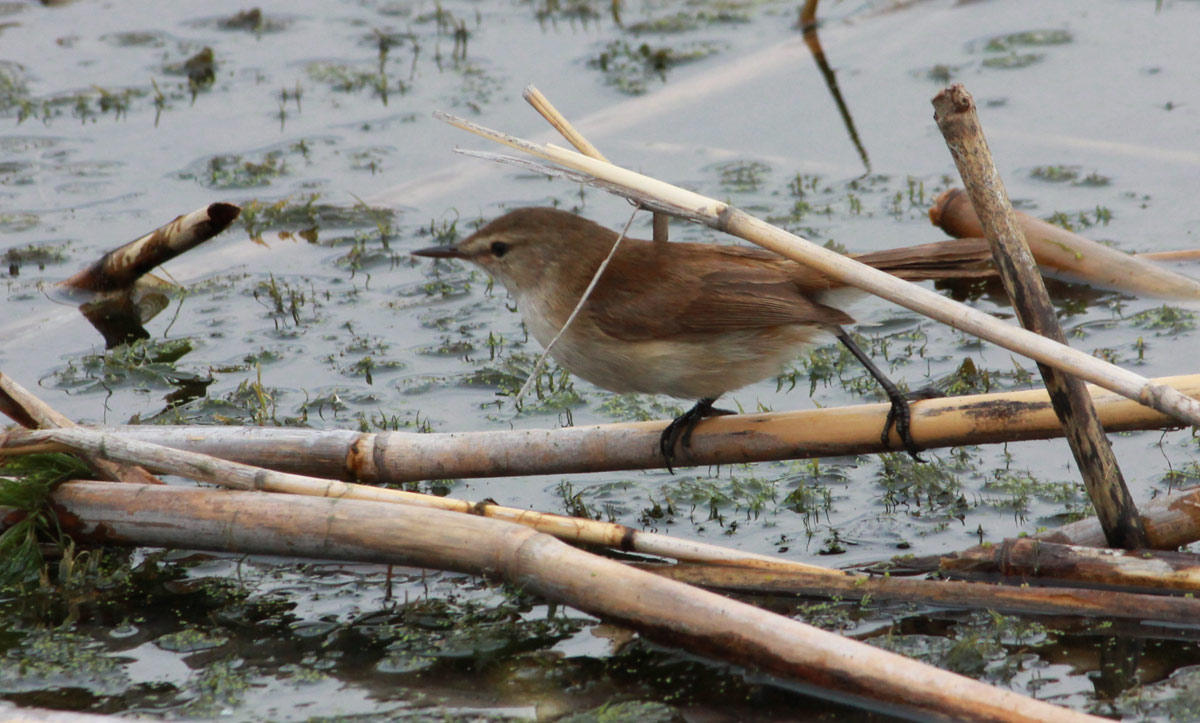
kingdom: Animalia
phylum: Chordata
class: Aves
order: Passeriformes
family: Acrocephalidae
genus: Acrocephalus
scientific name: Acrocephalus gracilirostris
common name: Lesser swamp warbler
